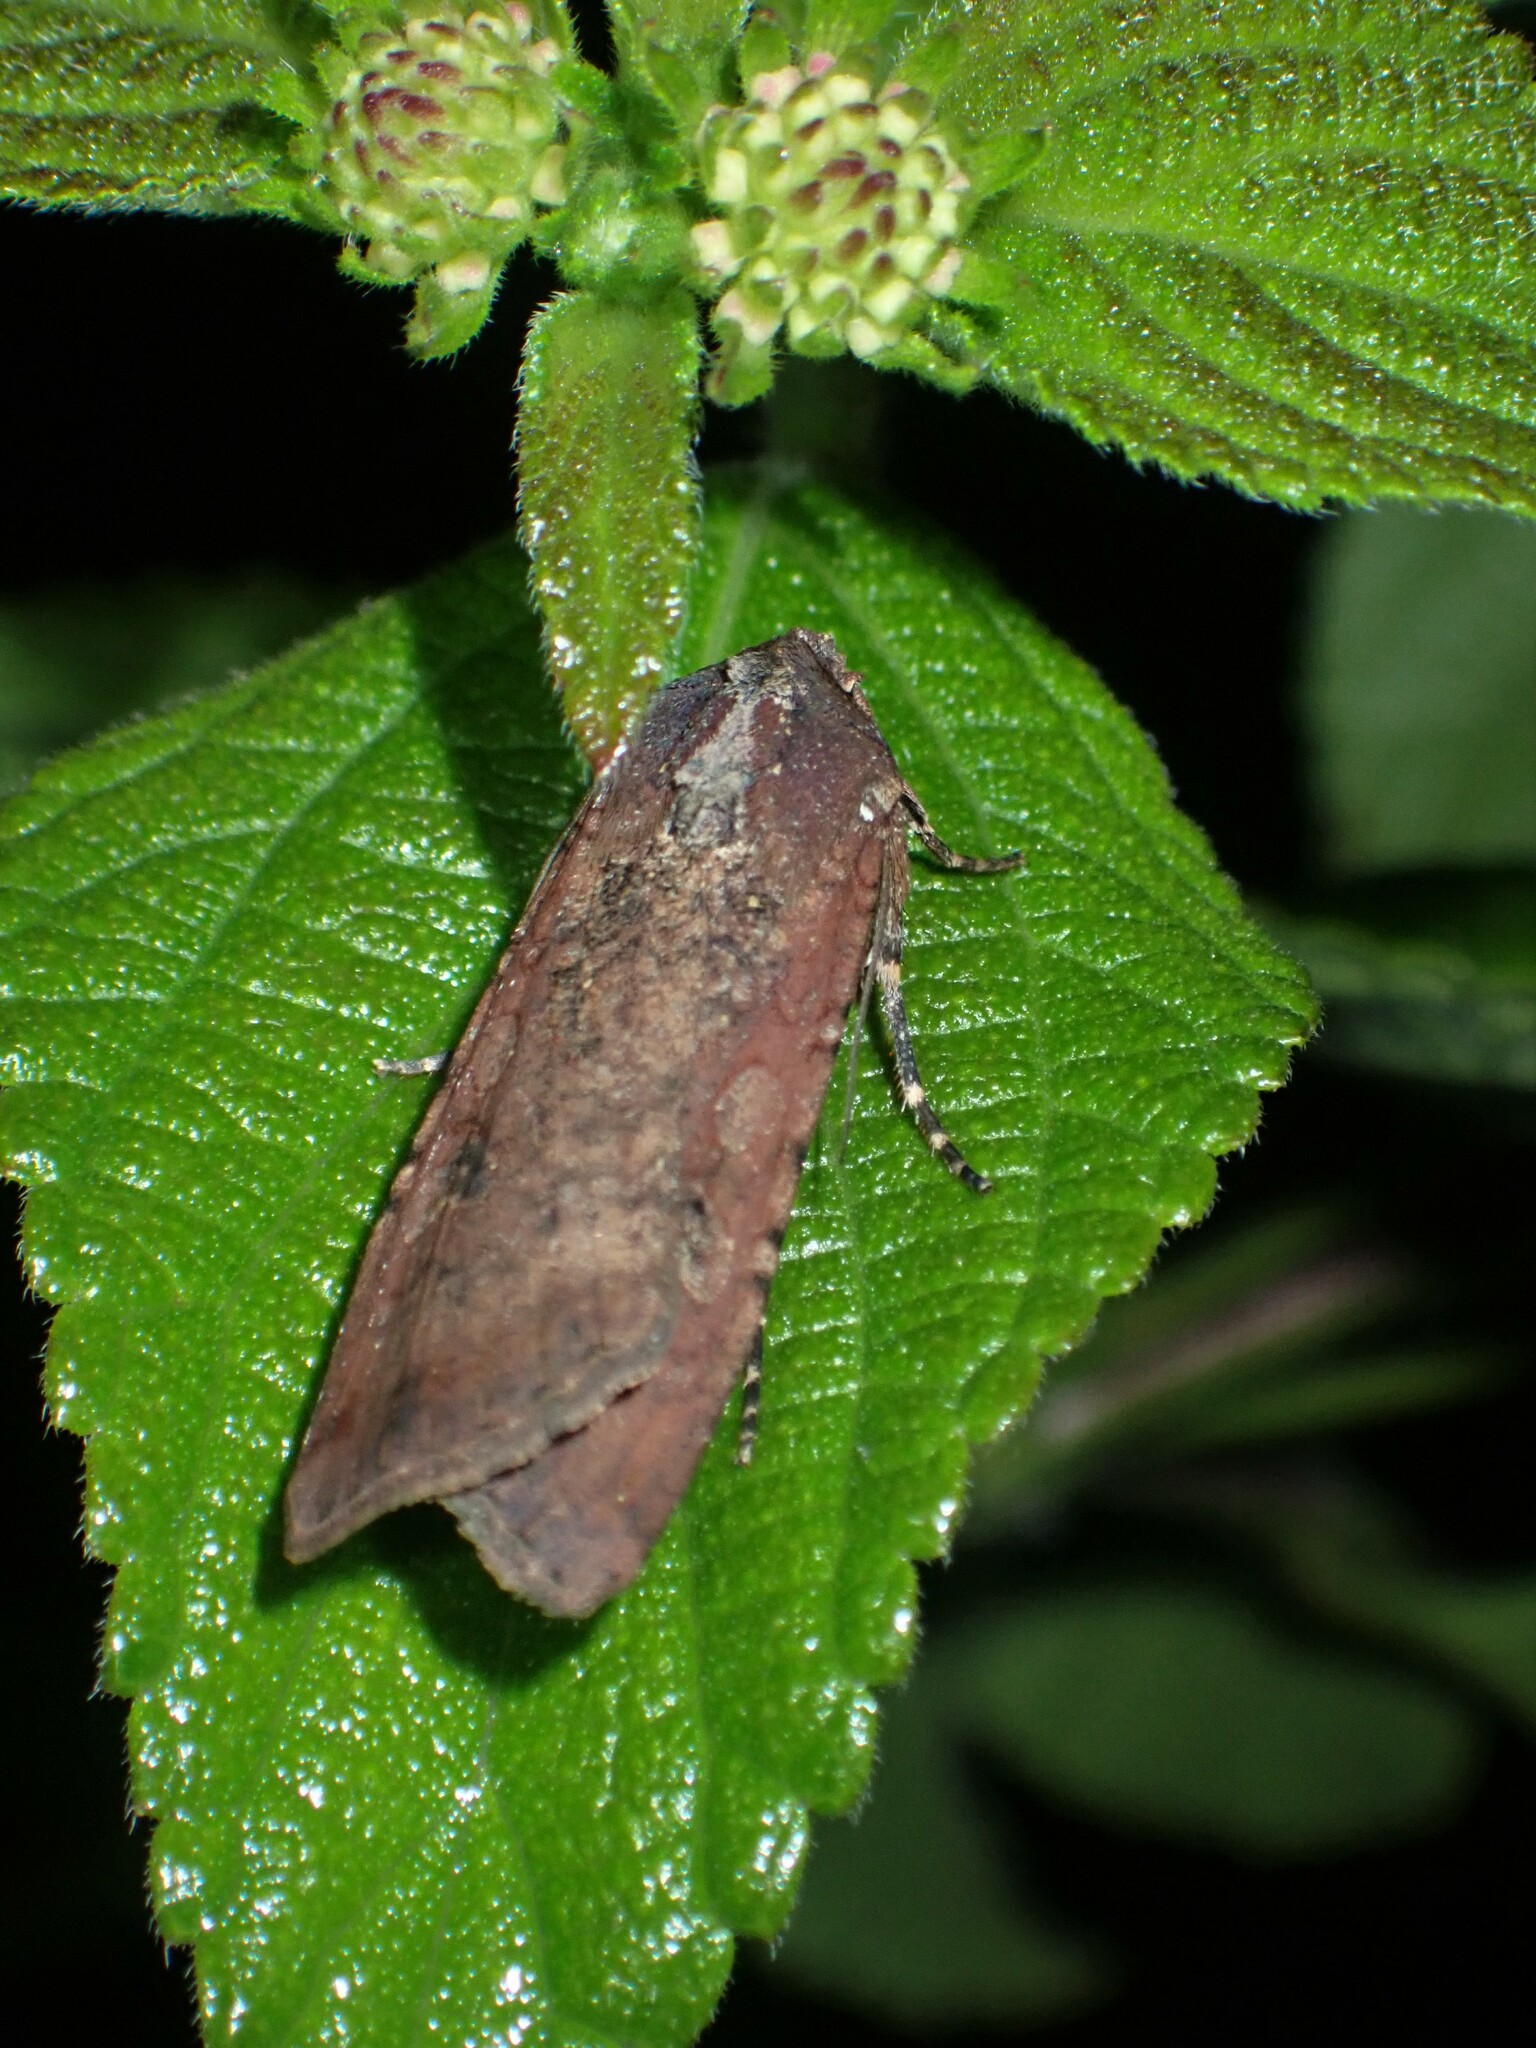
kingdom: Animalia
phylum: Arthropoda
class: Insecta
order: Lepidoptera
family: Noctuidae
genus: Peridroma
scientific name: Peridroma saucia
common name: Pearly underwing
